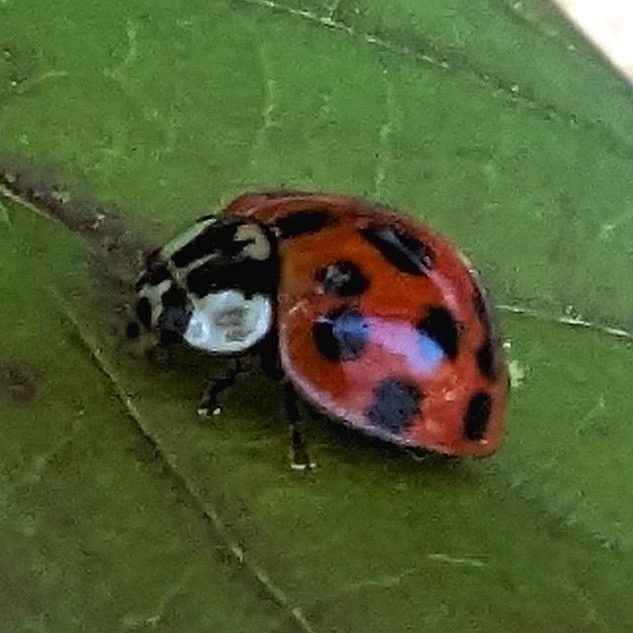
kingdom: Animalia
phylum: Arthropoda
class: Insecta
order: Coleoptera
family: Coccinellidae
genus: Harmonia
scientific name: Harmonia axyridis
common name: Harlequin ladybird
